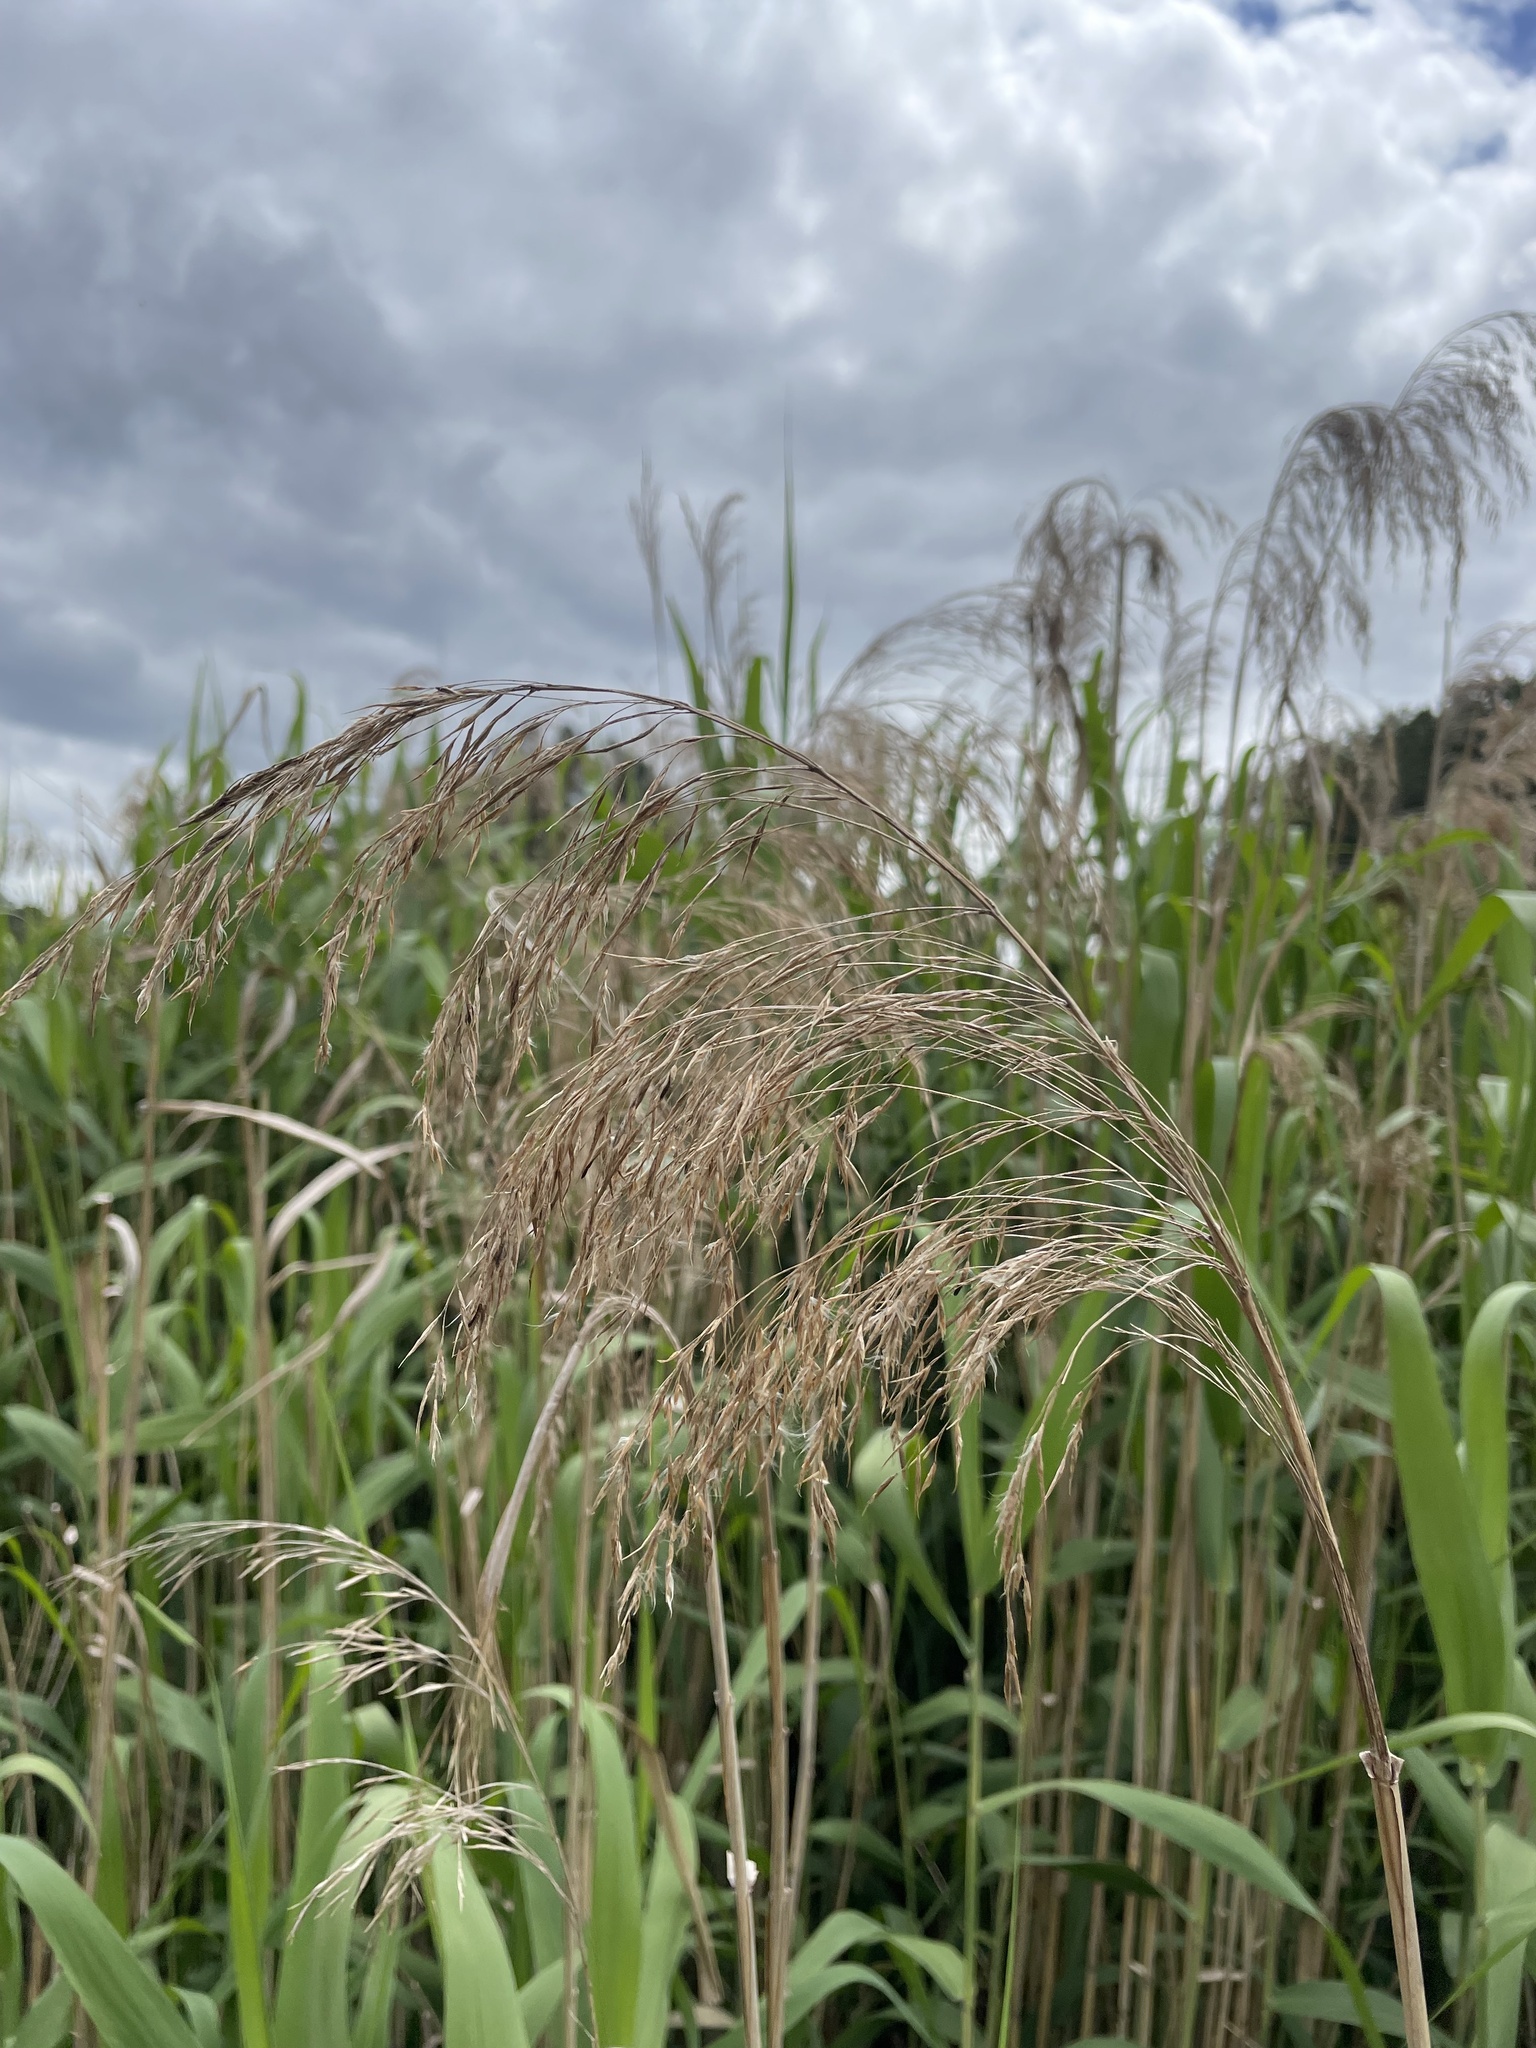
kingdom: Plantae
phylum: Tracheophyta
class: Liliopsida
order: Poales
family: Poaceae
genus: Phragmites
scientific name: Phragmites australis
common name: Common reed
